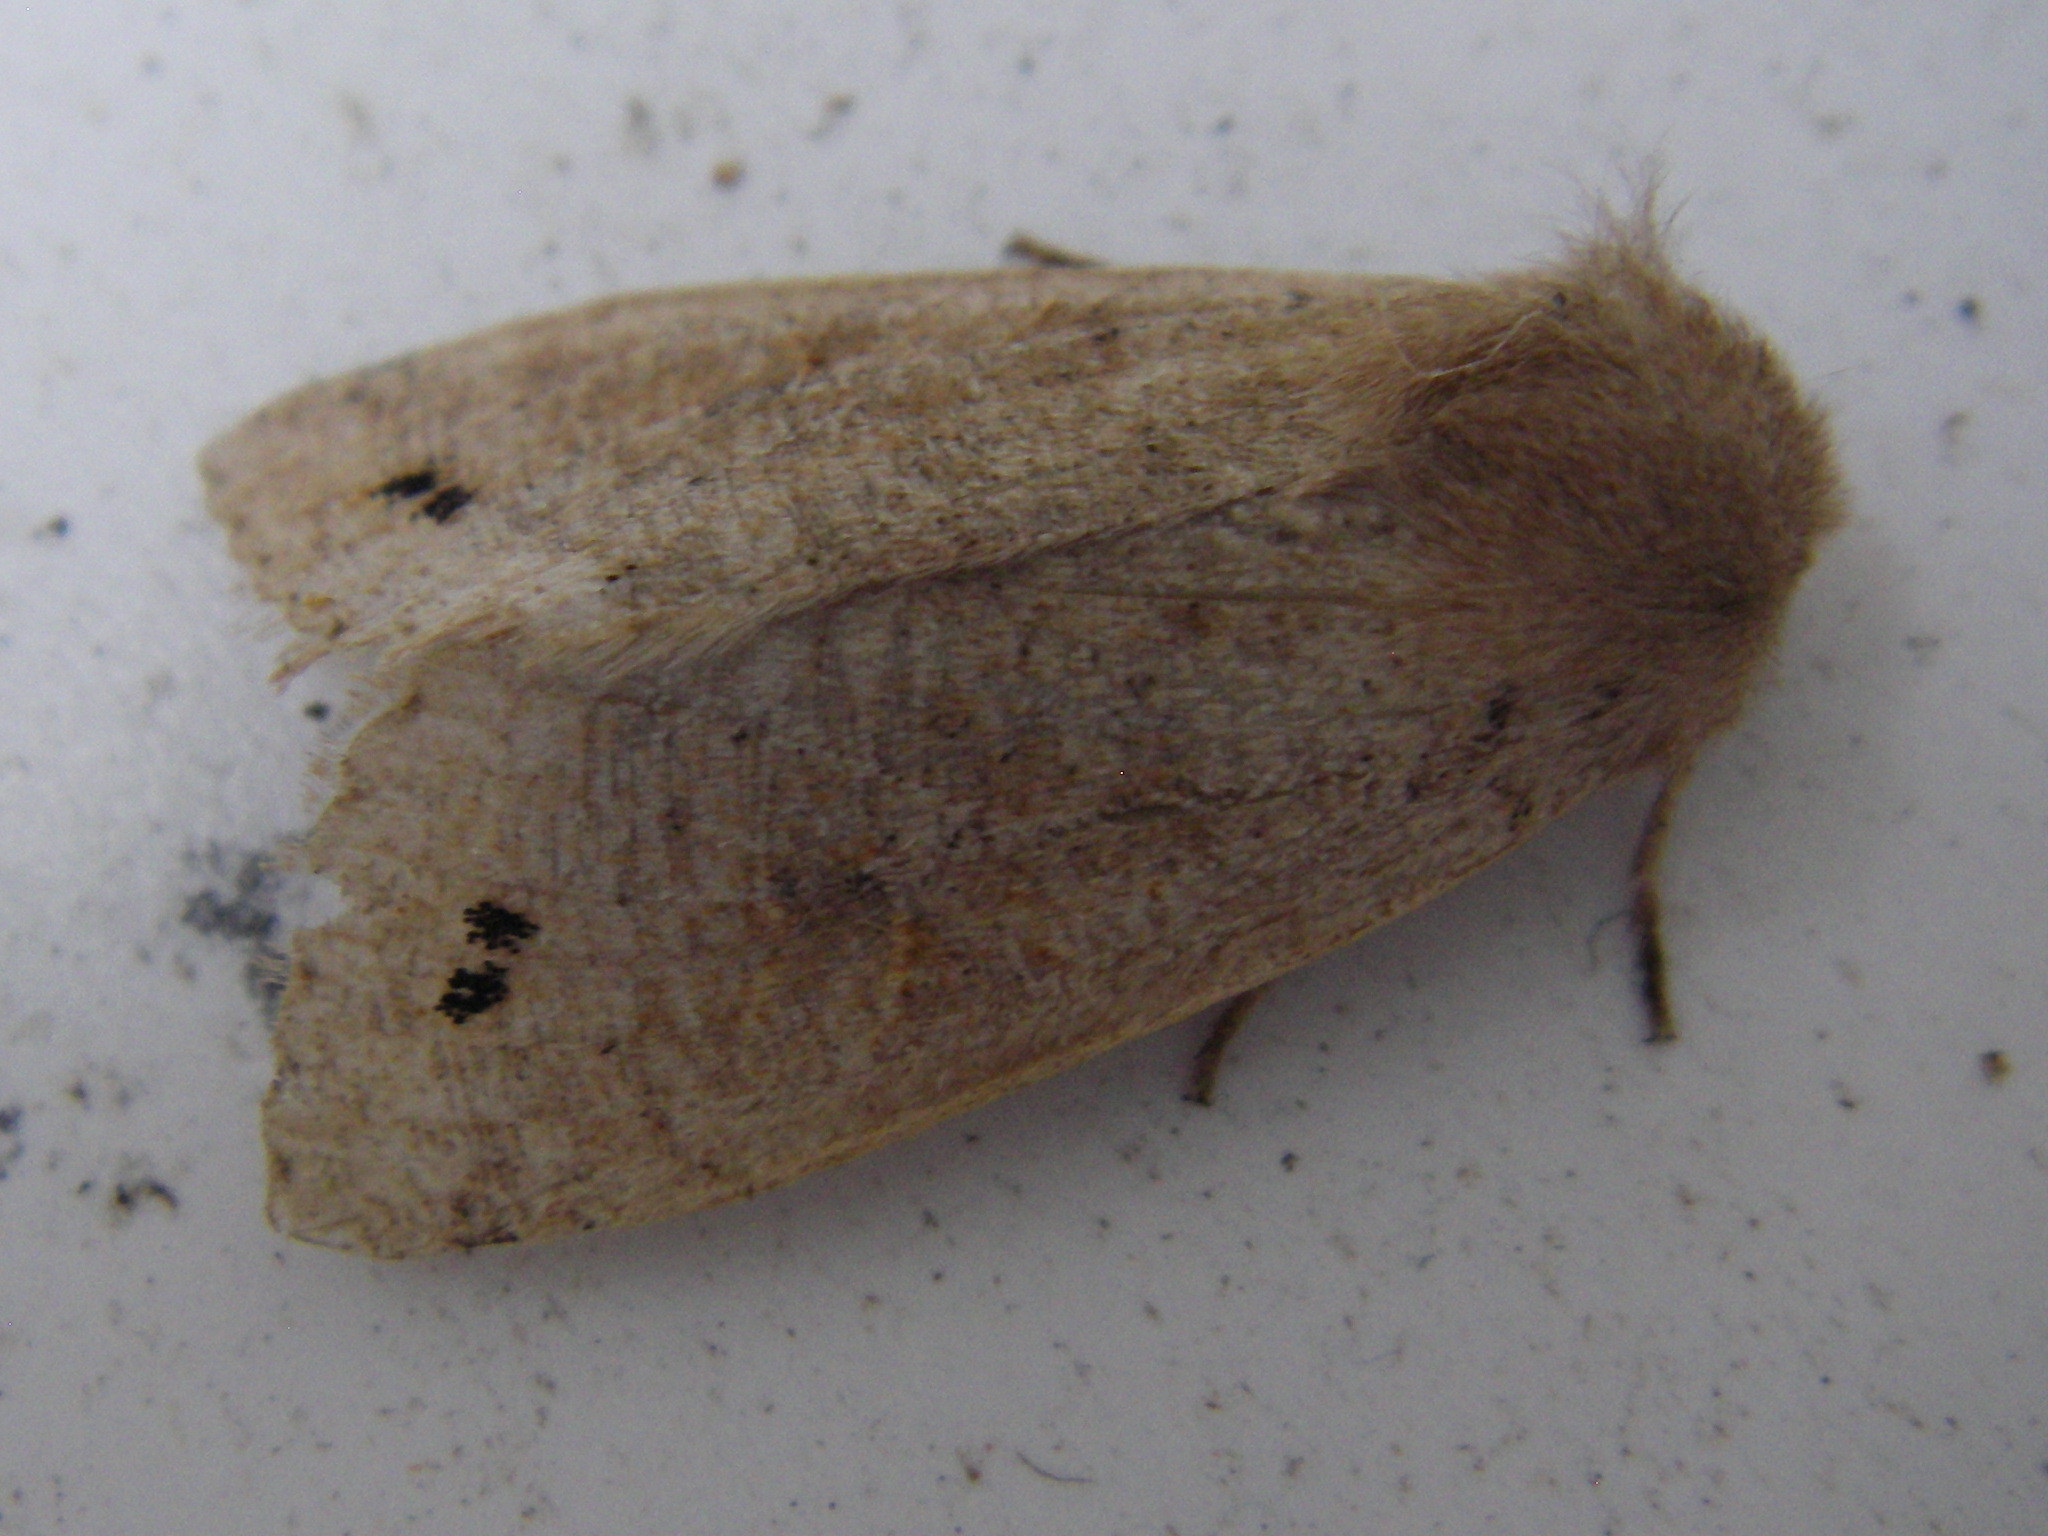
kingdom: Animalia
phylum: Arthropoda
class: Insecta
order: Lepidoptera
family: Noctuidae
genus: Anorthoa
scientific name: Anorthoa munda
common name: Twin-spotted quaker
